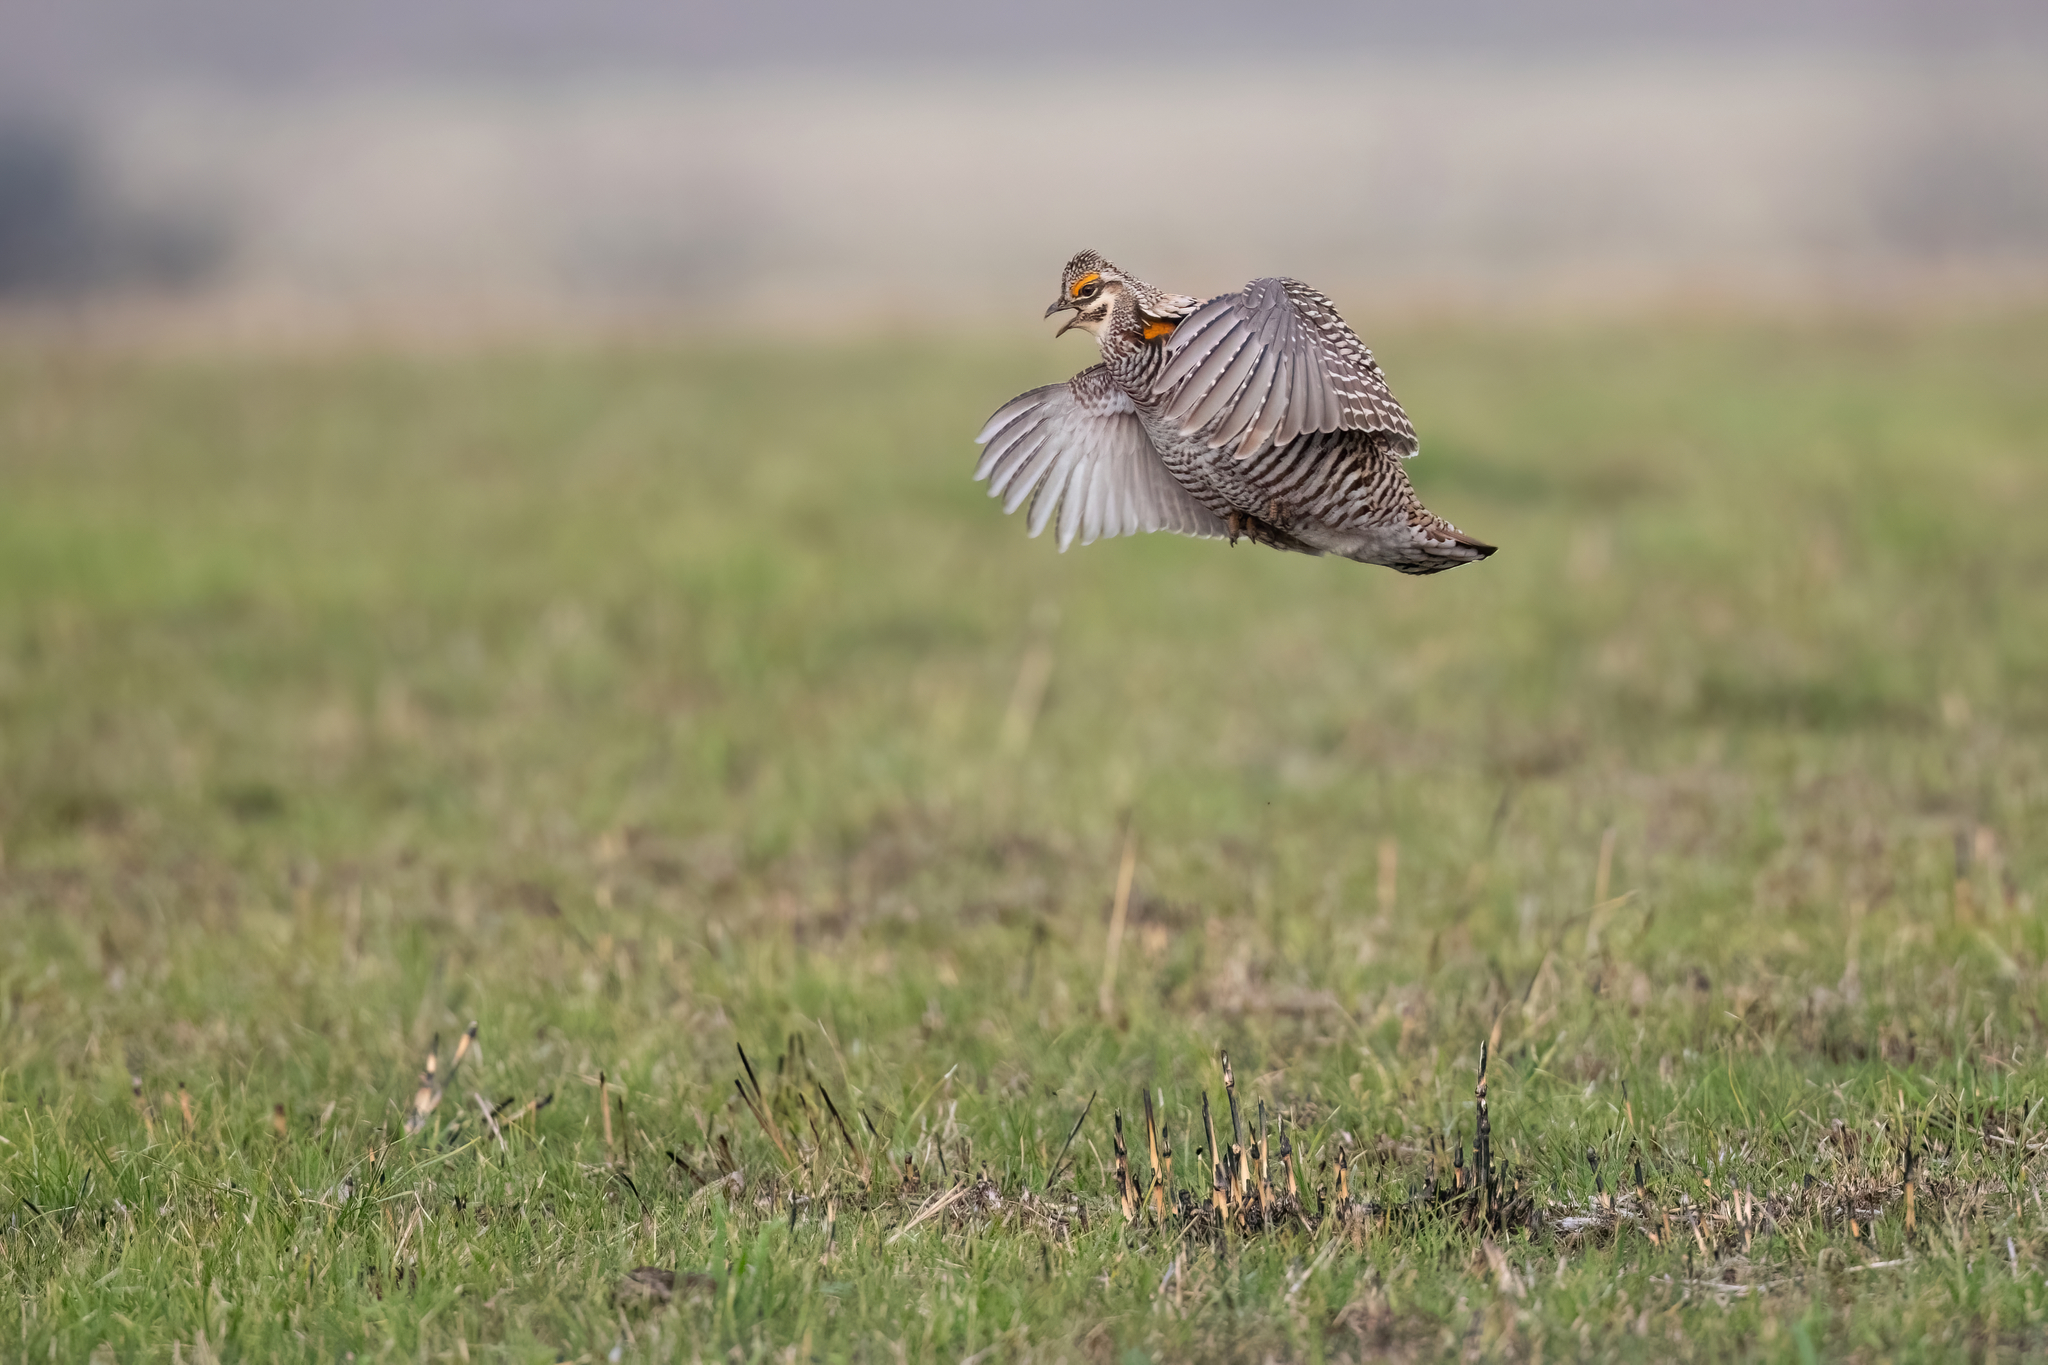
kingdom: Animalia
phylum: Chordata
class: Aves
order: Galliformes
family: Phasianidae
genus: Tympanuchus
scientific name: Tympanuchus cupido
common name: Greater prairie chicken
